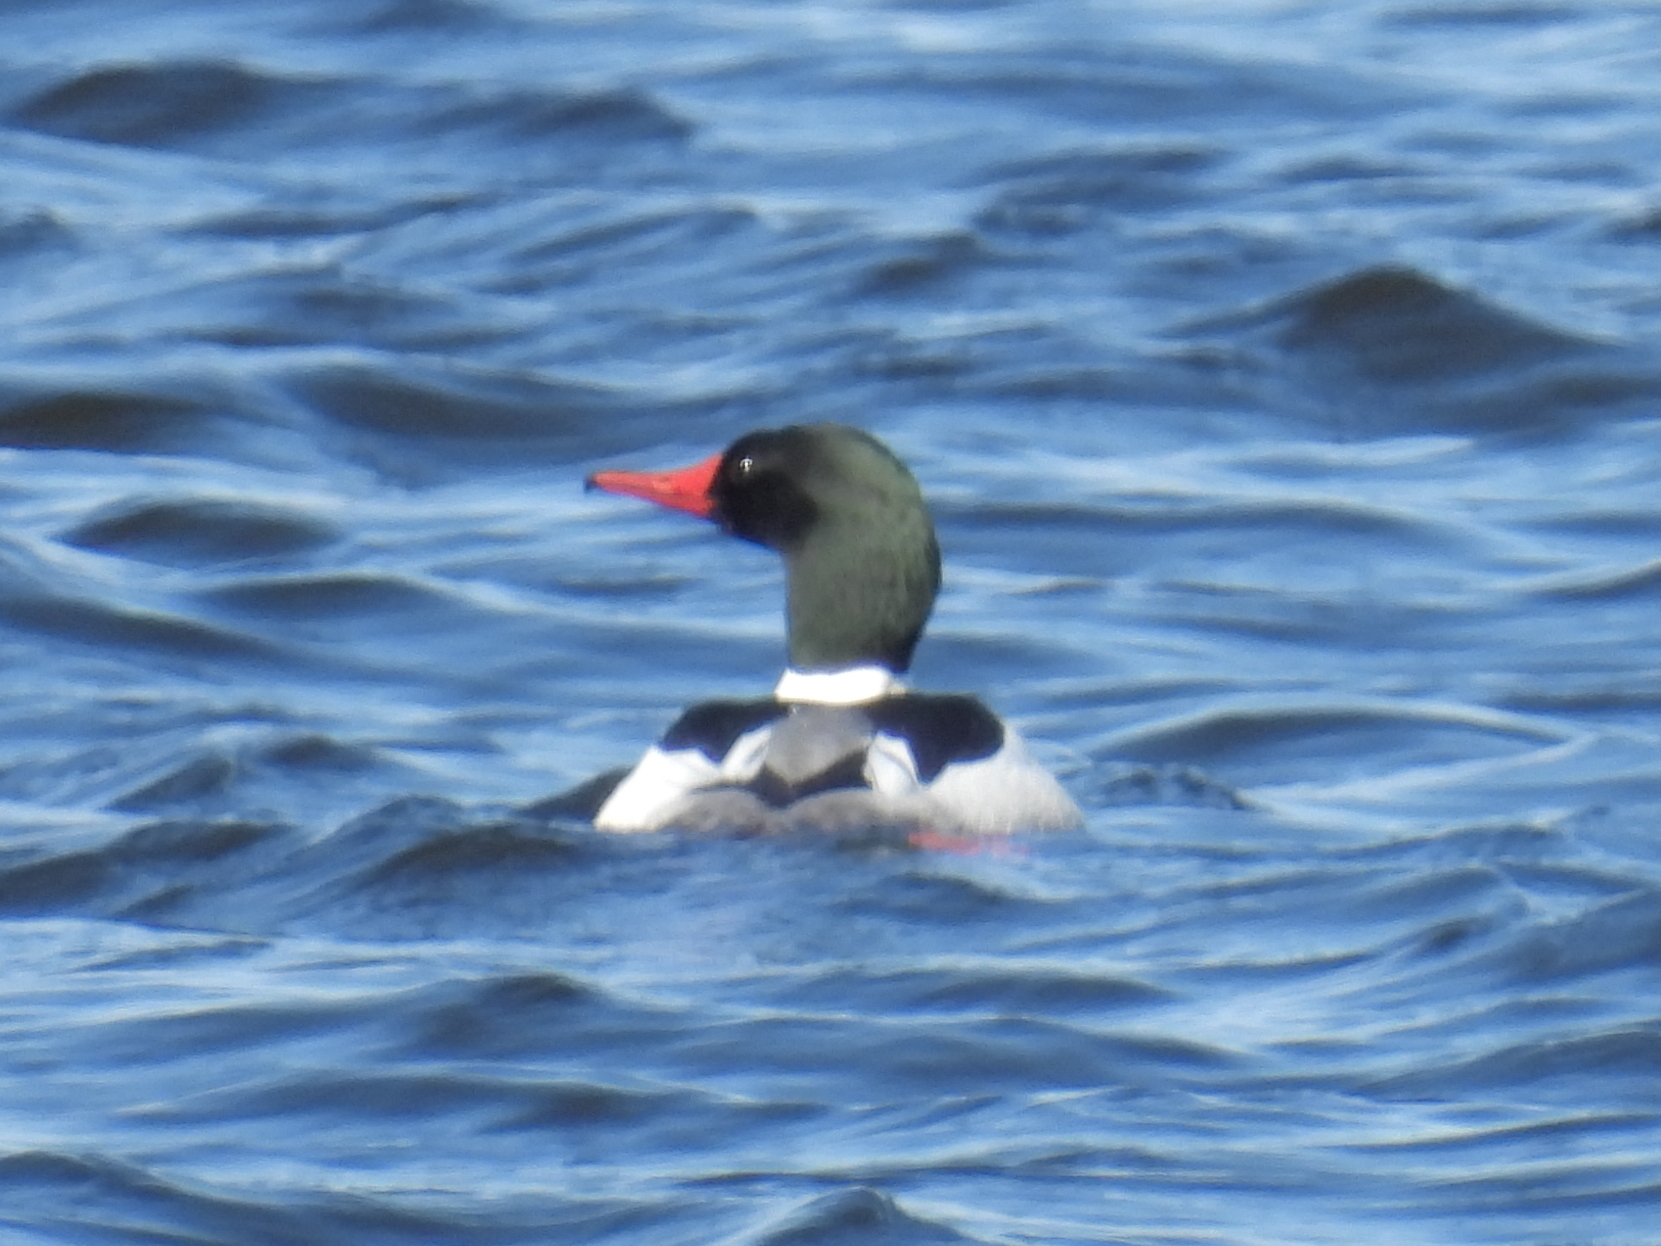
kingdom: Animalia
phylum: Chordata
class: Aves
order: Anseriformes
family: Anatidae
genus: Mergus
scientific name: Mergus merganser
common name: Common merganser
